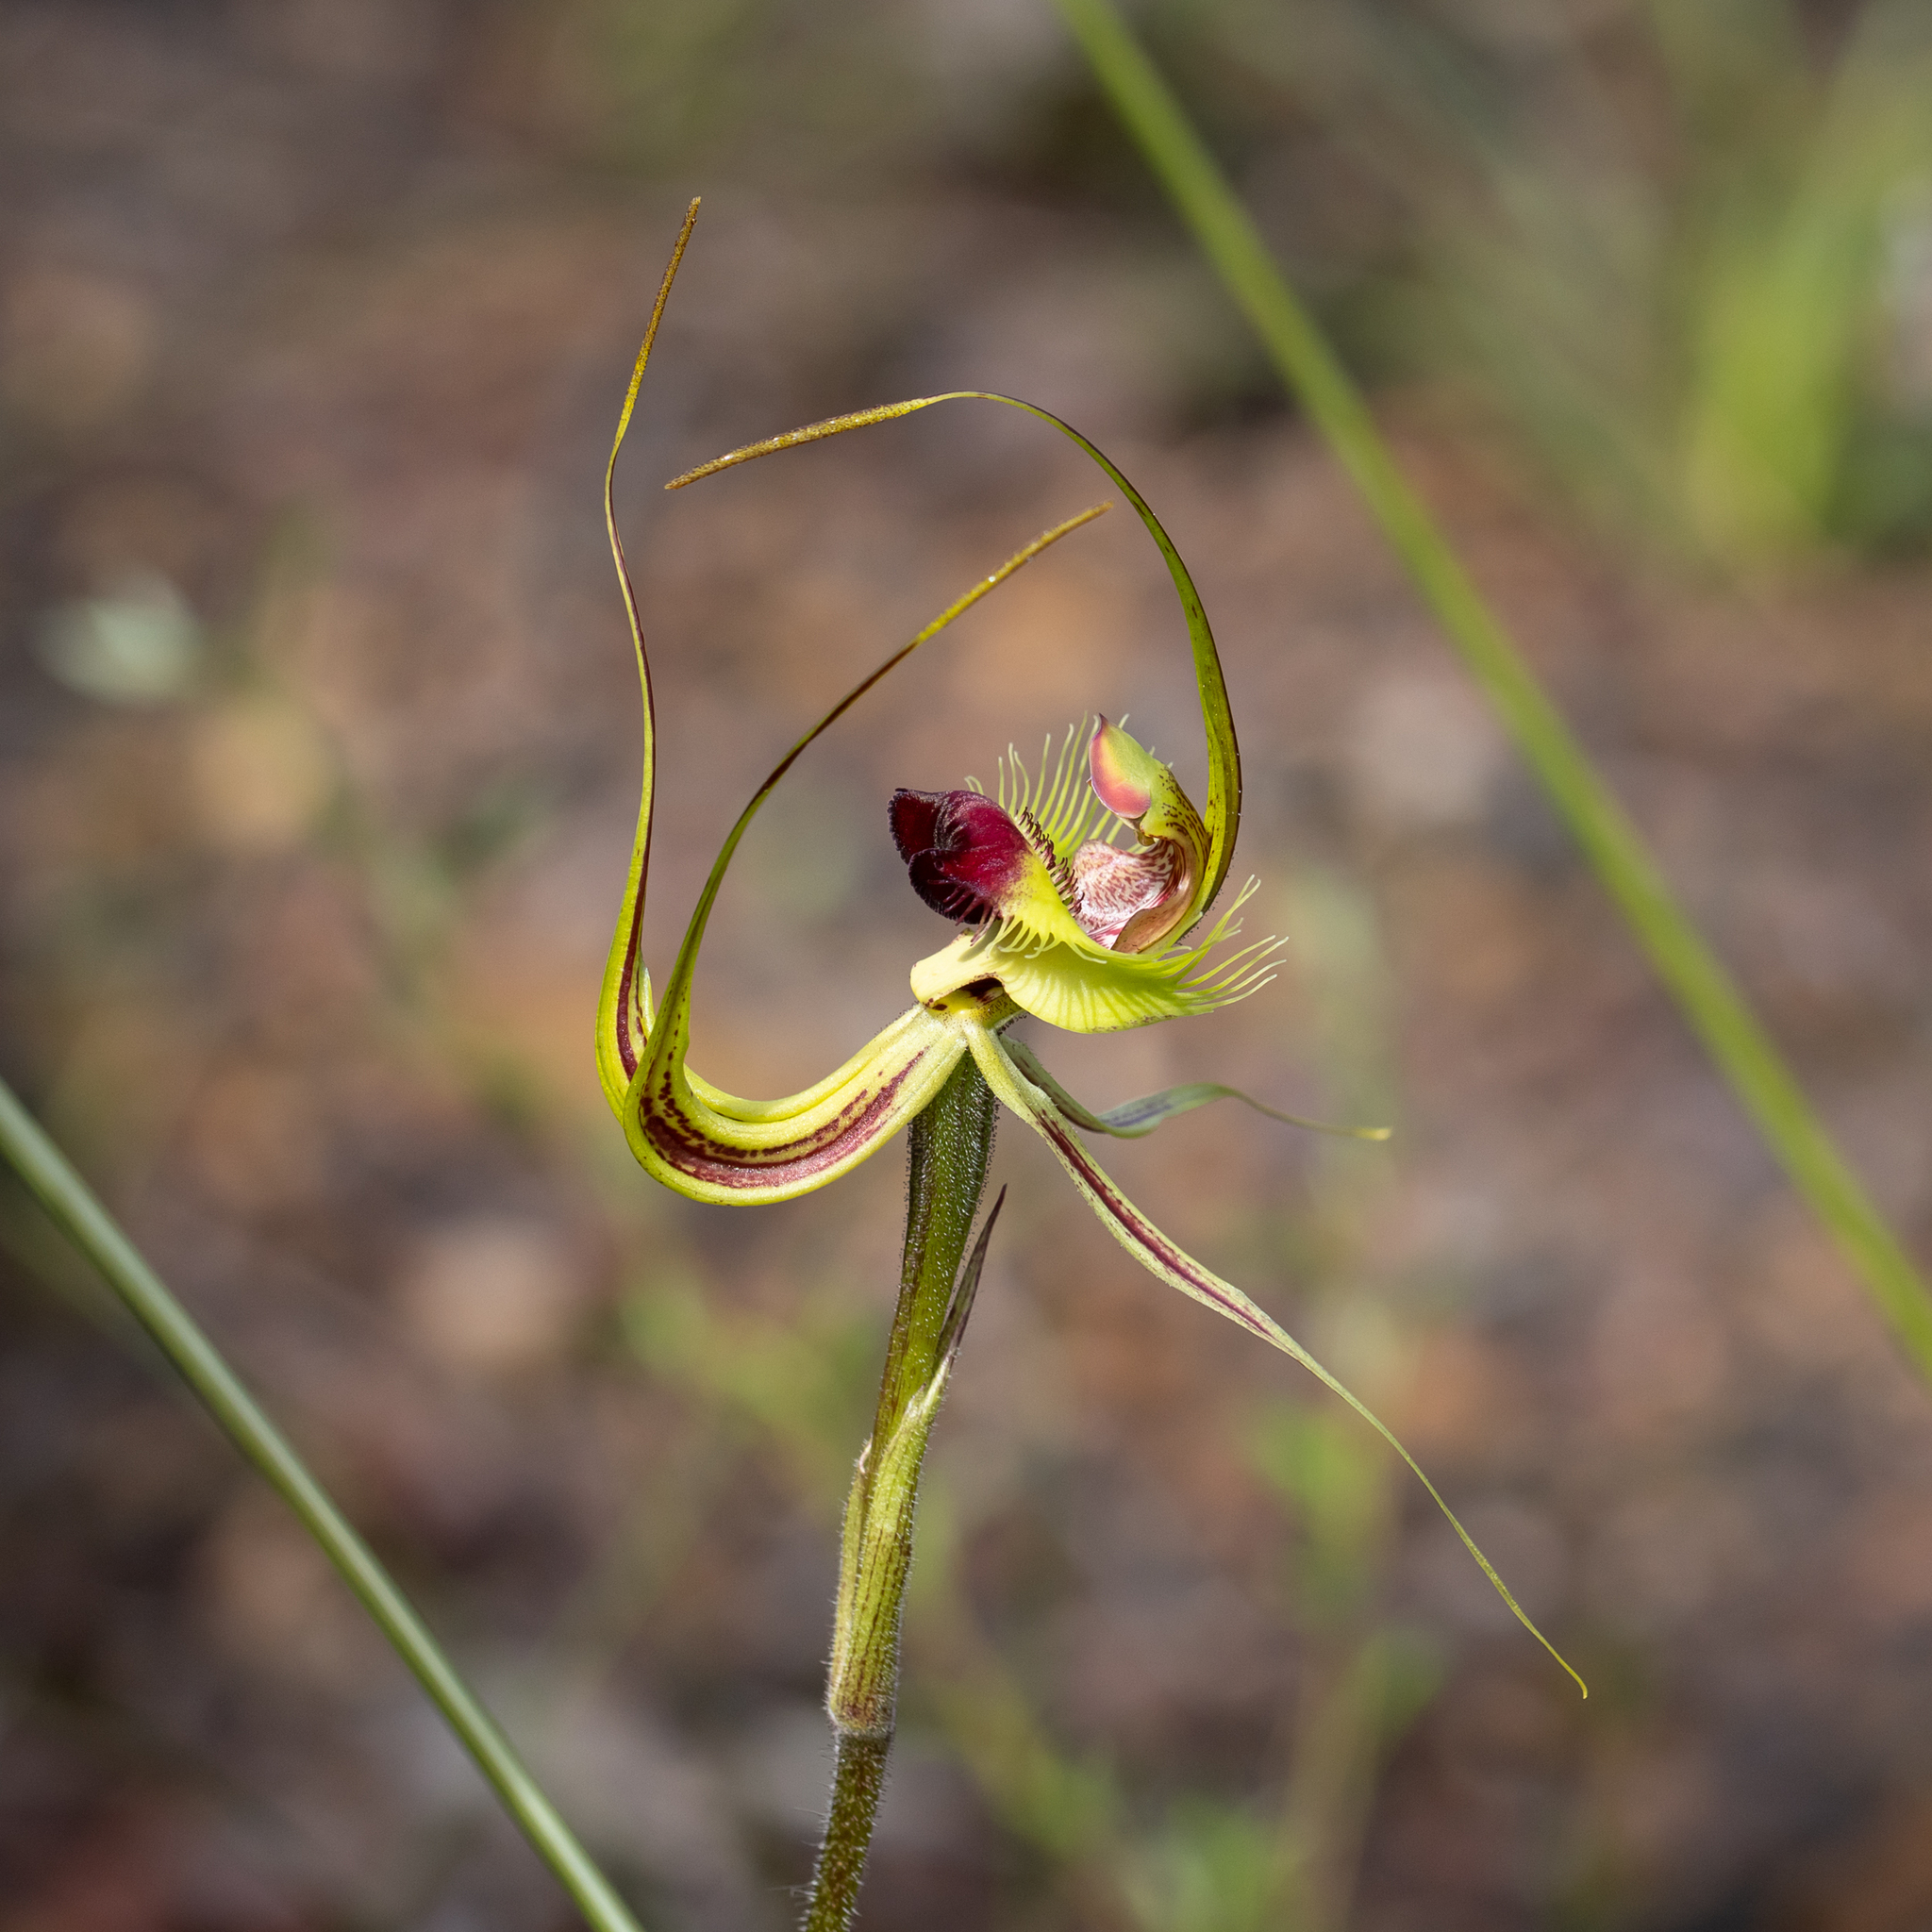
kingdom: Plantae
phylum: Tracheophyta
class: Liliopsida
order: Asparagales
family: Orchidaceae
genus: Caladenia
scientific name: Caladenia lobata
